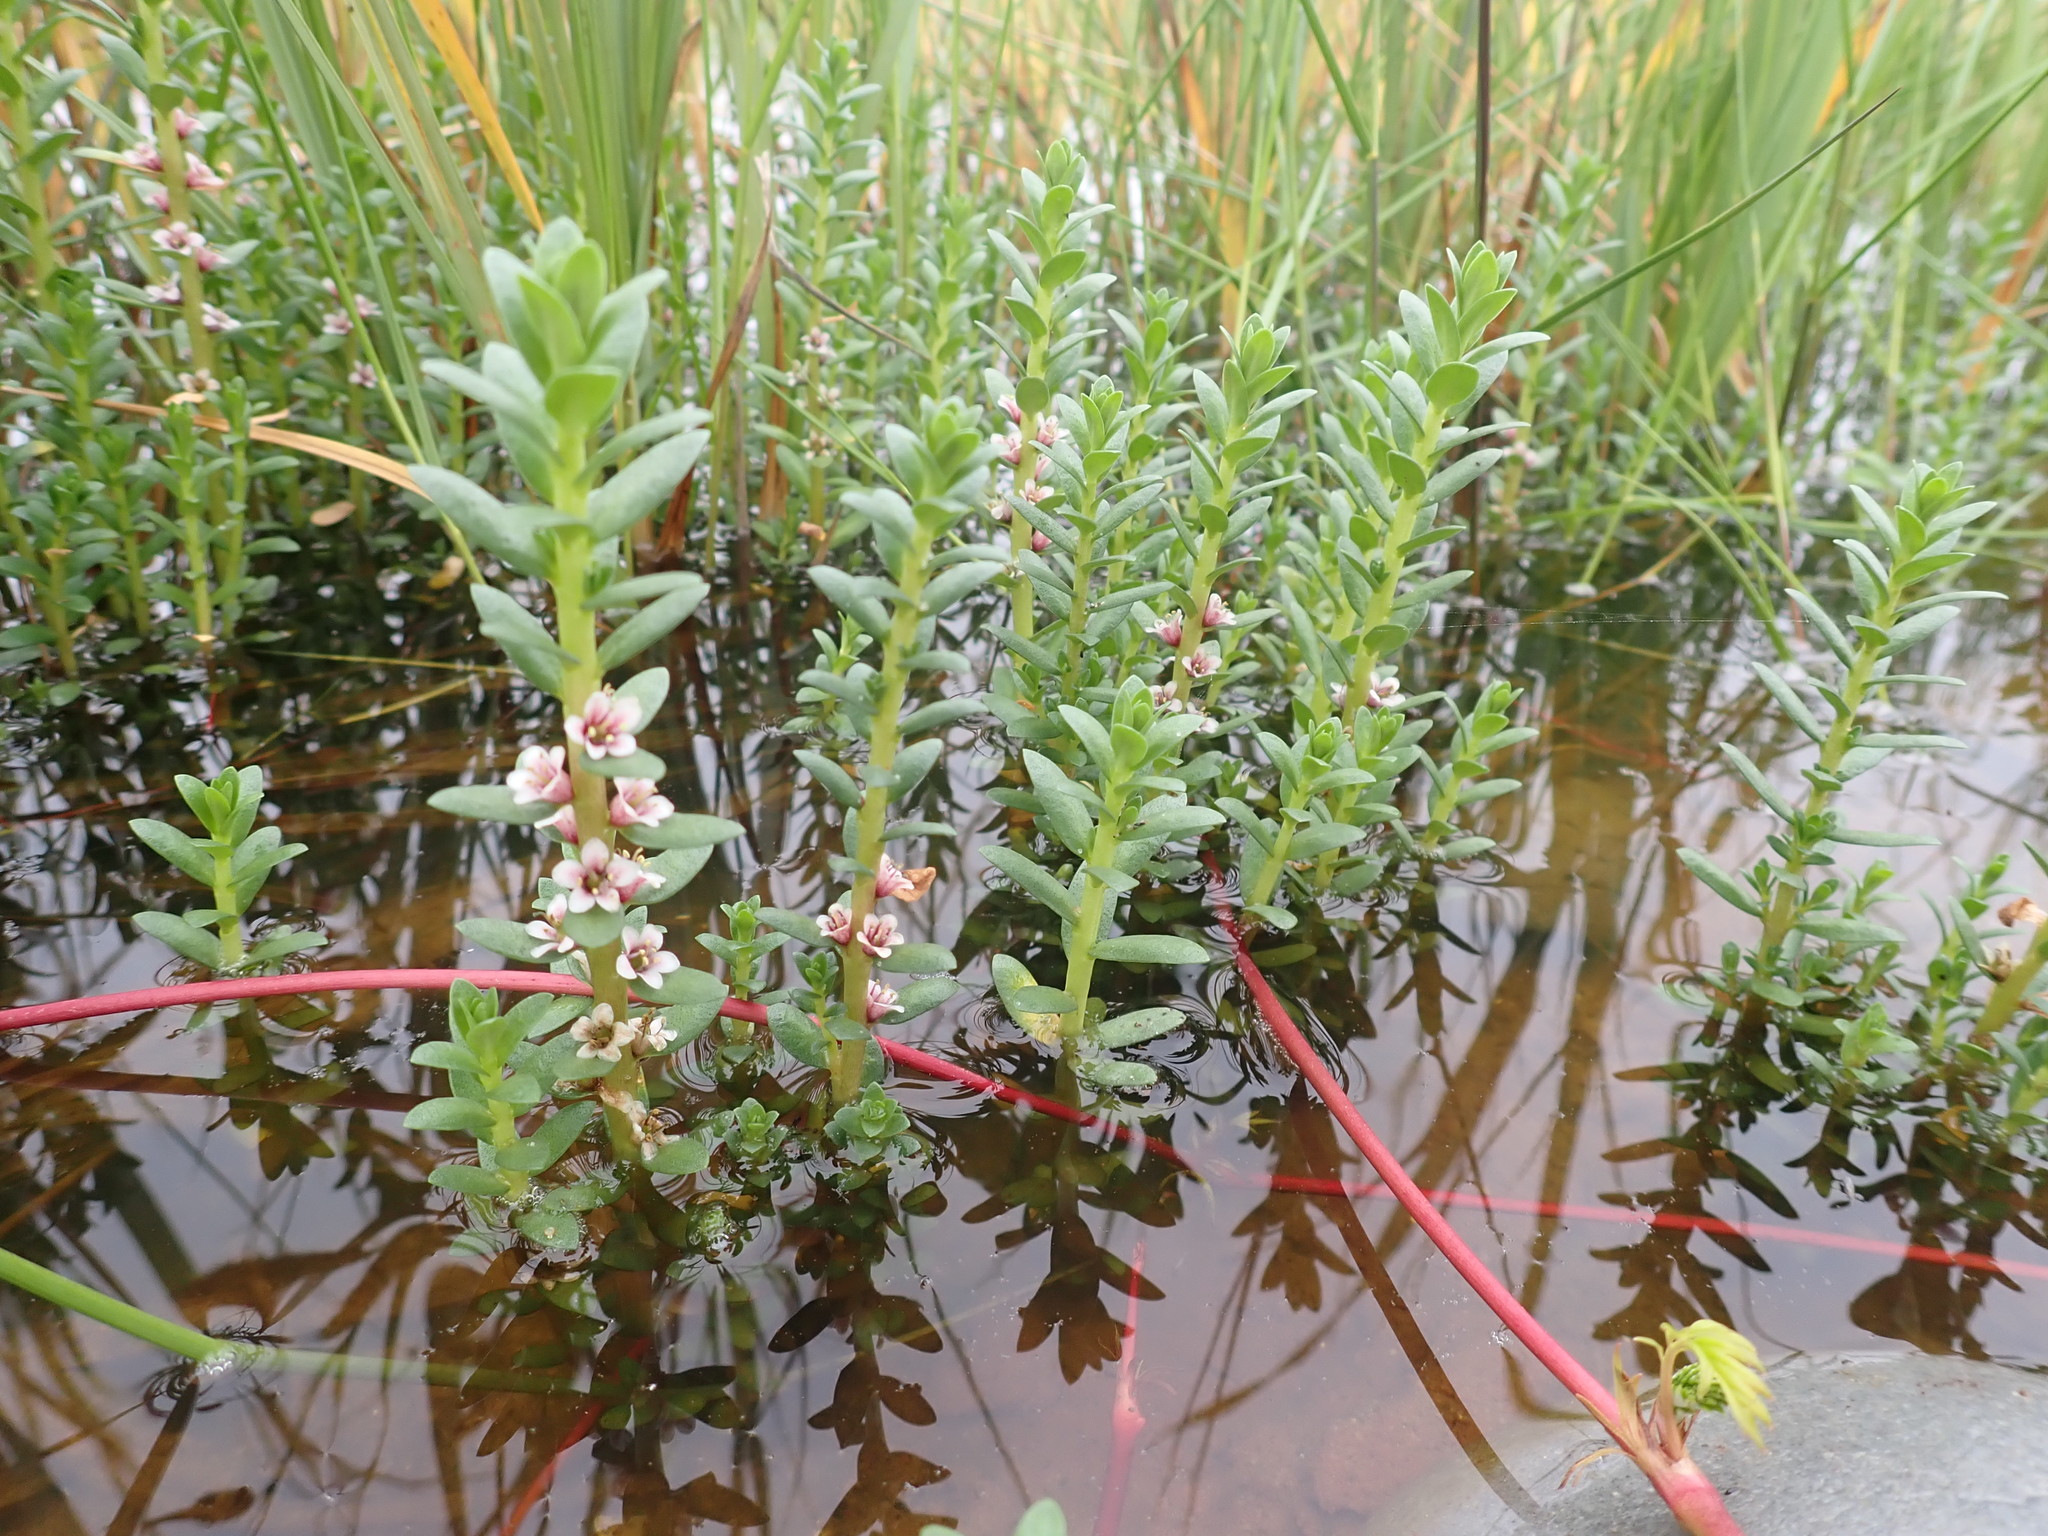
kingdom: Plantae
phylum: Tracheophyta
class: Magnoliopsida
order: Ericales
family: Primulaceae
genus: Lysimachia
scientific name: Lysimachia maritima
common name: Sea milkwort
